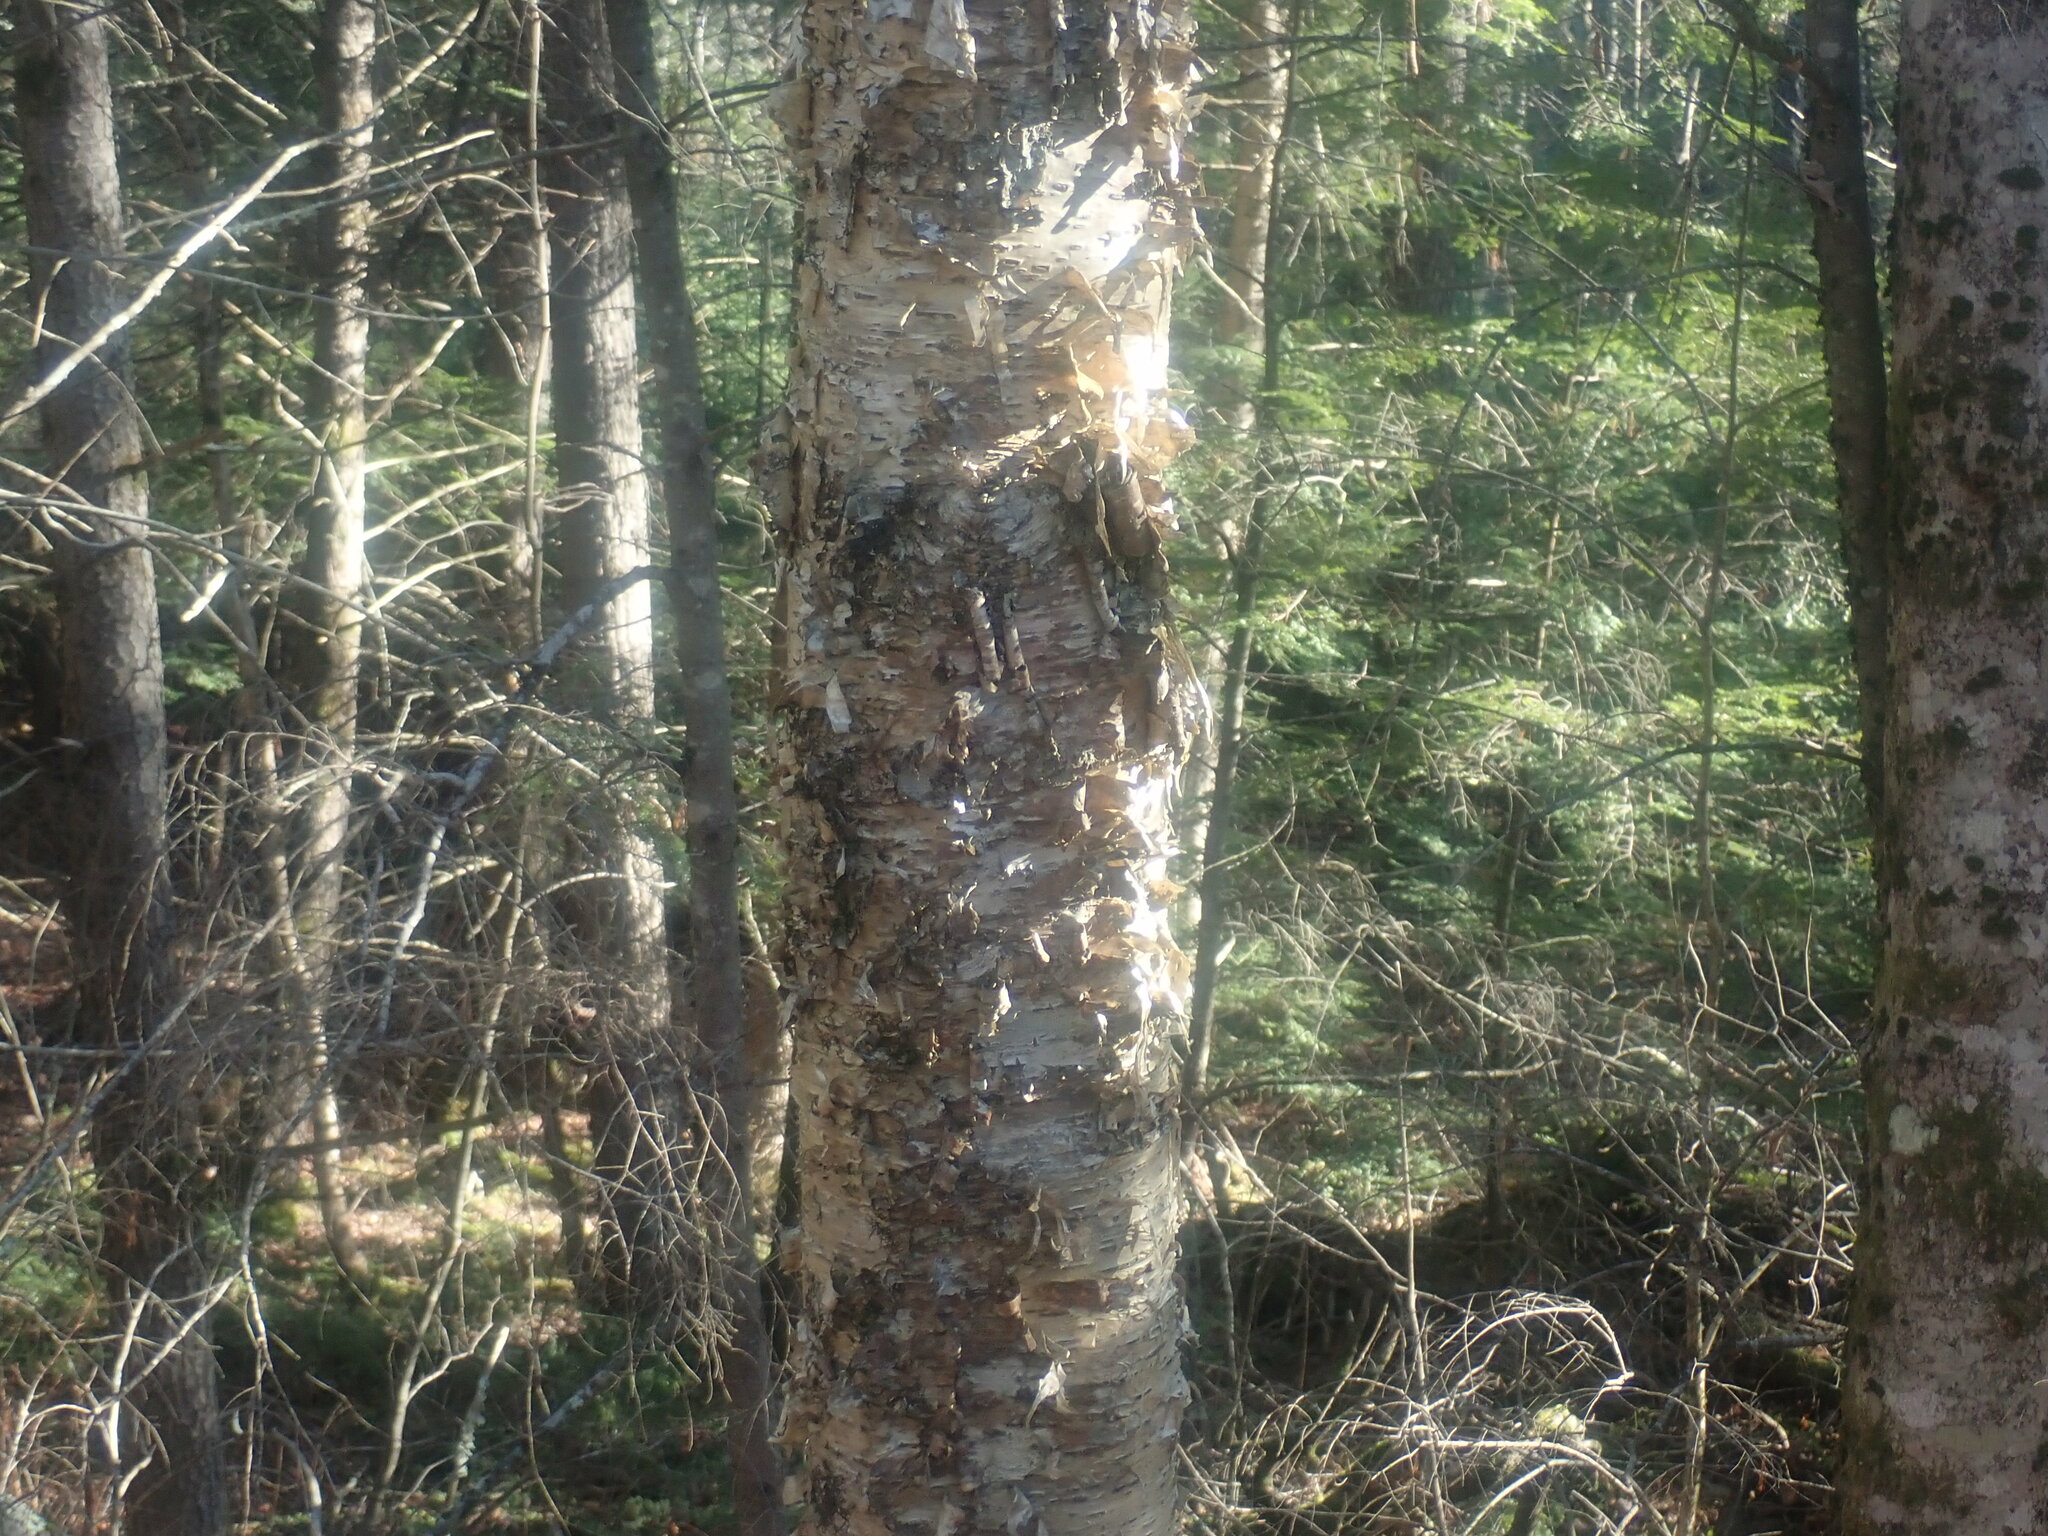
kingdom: Plantae
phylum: Tracheophyta
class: Magnoliopsida
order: Fagales
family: Betulaceae
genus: Betula
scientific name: Betula alleghaniensis
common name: Yellow birch
